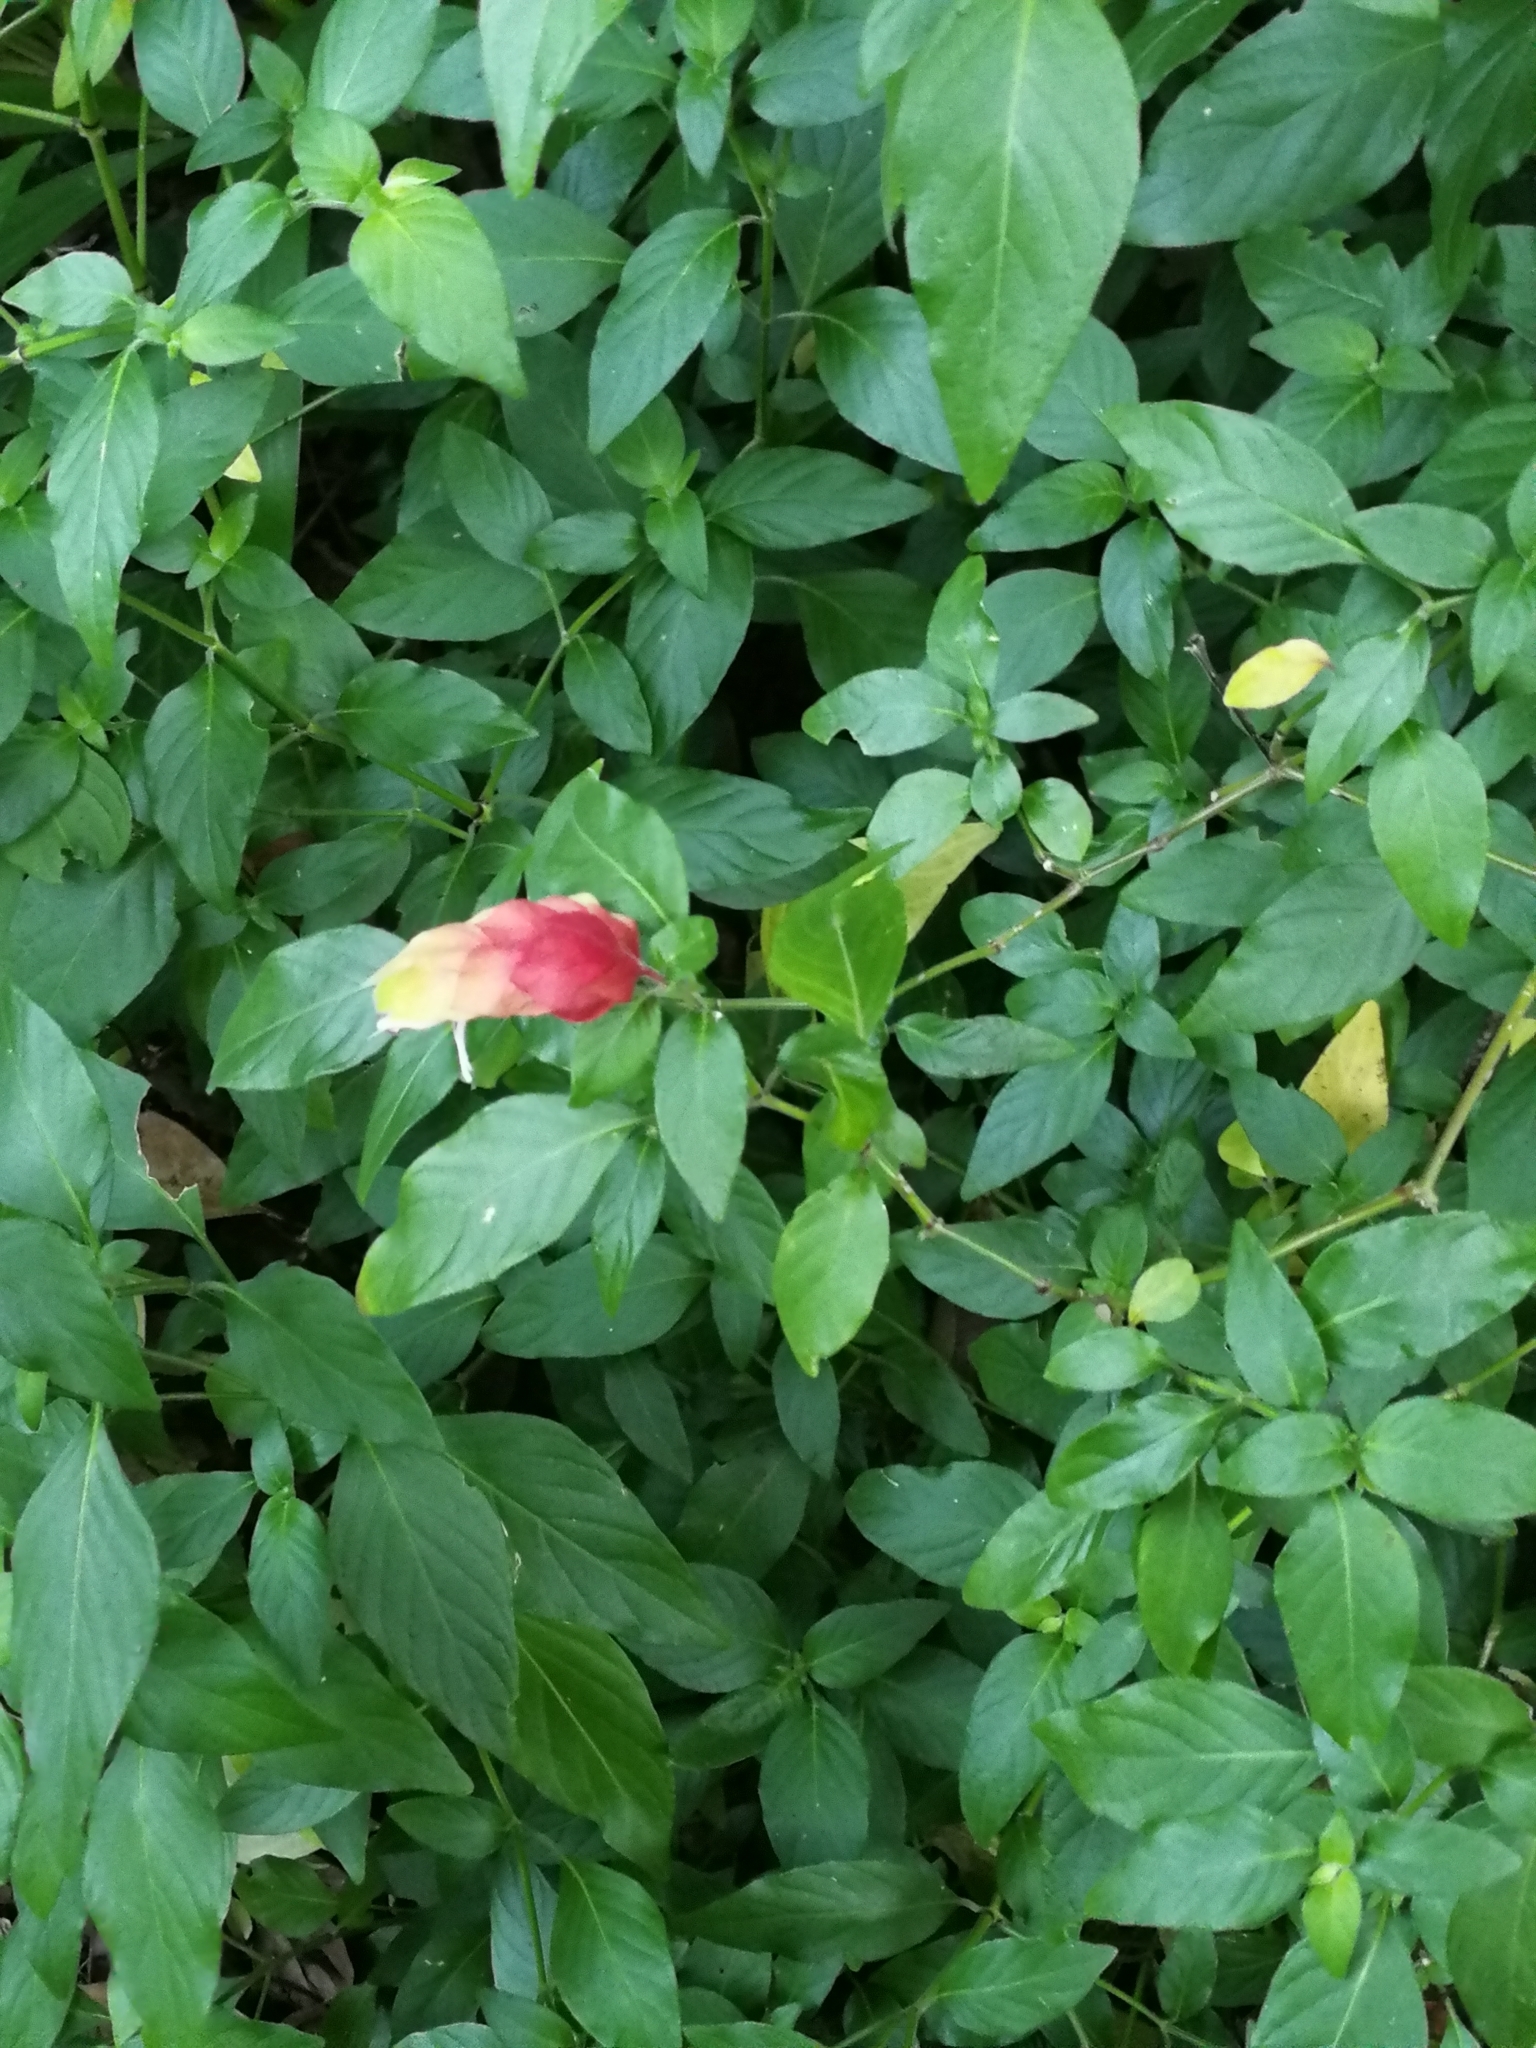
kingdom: Plantae
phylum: Tracheophyta
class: Magnoliopsida
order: Lamiales
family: Acanthaceae
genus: Justicia
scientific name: Justicia brandegeeana
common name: Shrimpplant
